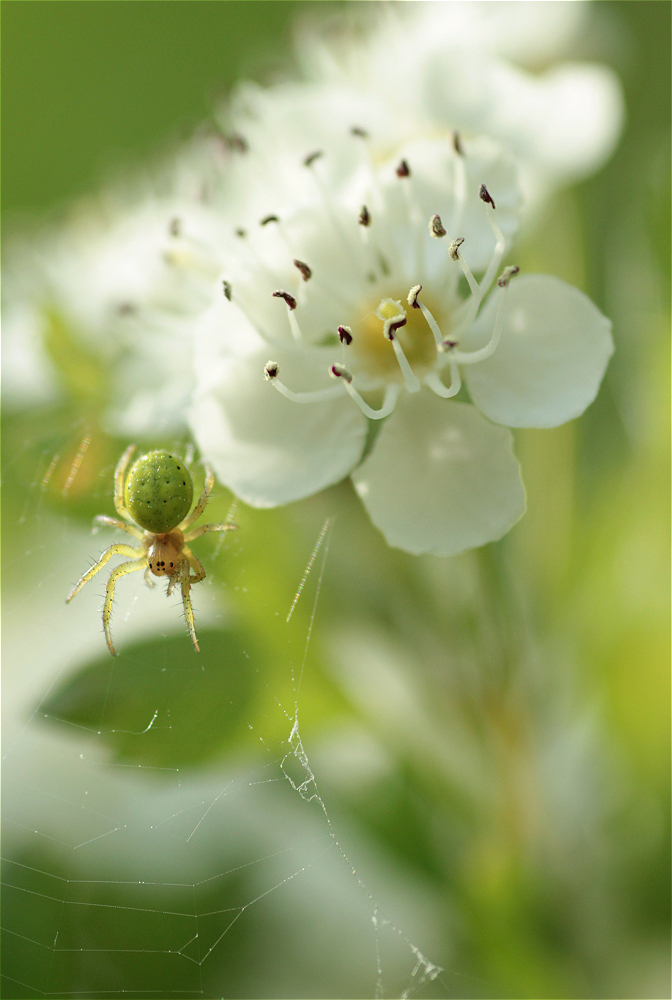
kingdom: Animalia
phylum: Arthropoda
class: Arachnida
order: Araneae
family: Araneidae
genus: Araniella
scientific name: Araniella
